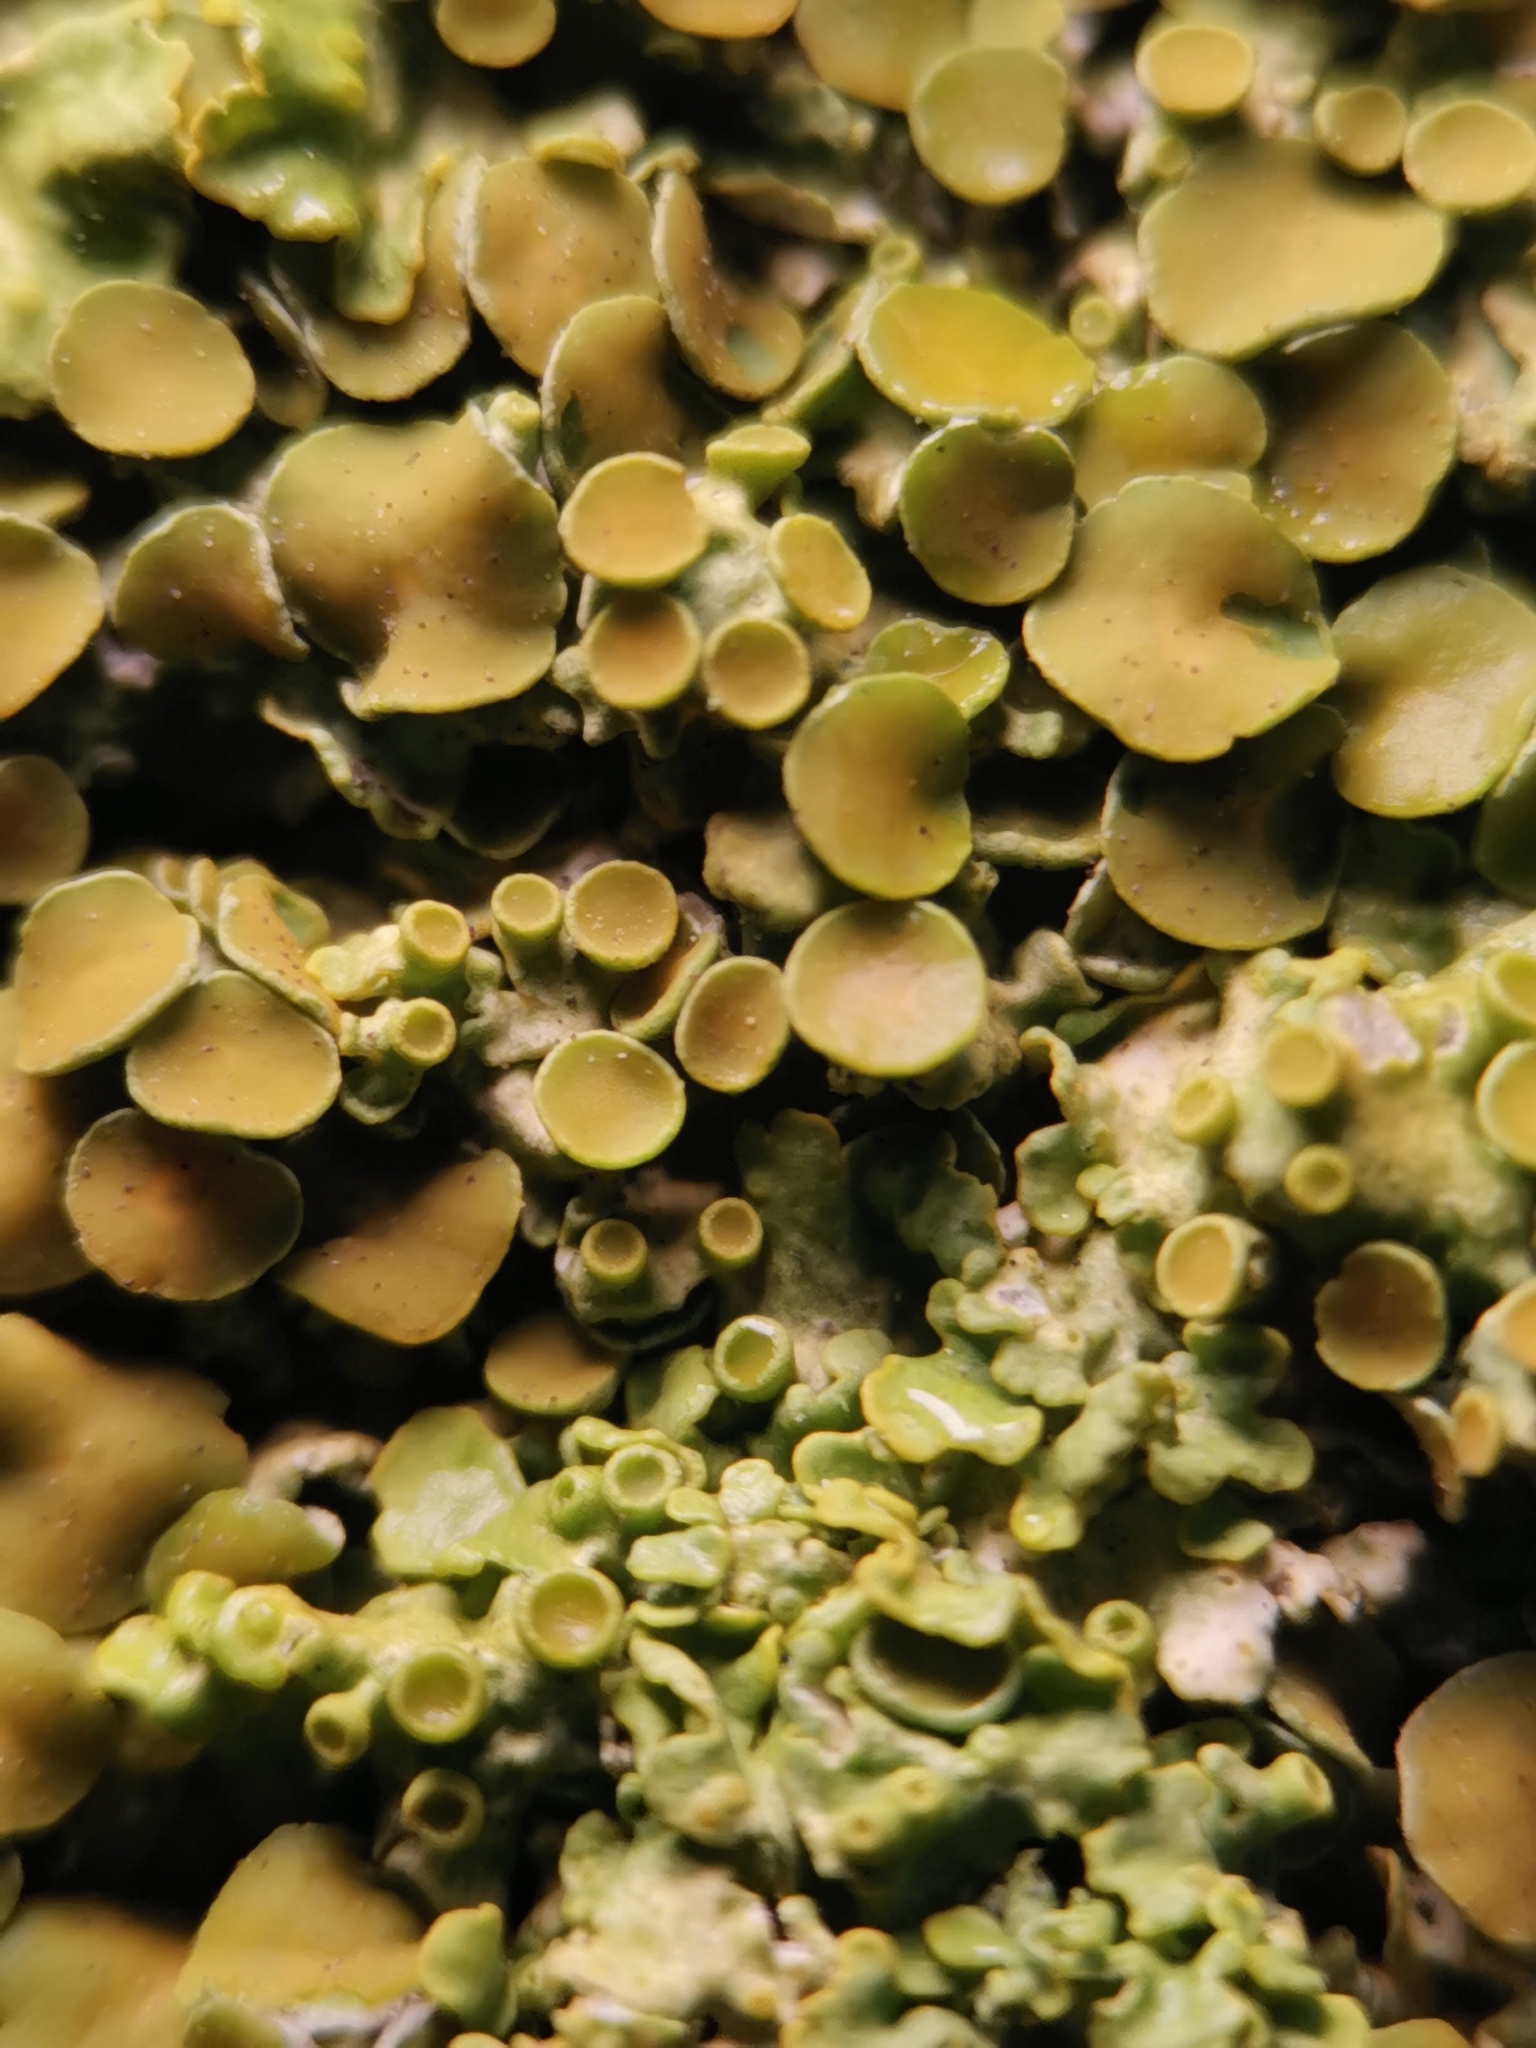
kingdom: Fungi
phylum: Ascomycota
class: Lecanoromycetes
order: Teloschistales
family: Teloschistaceae
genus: Xanthoria
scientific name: Xanthoria parietina
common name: Common orange lichen
